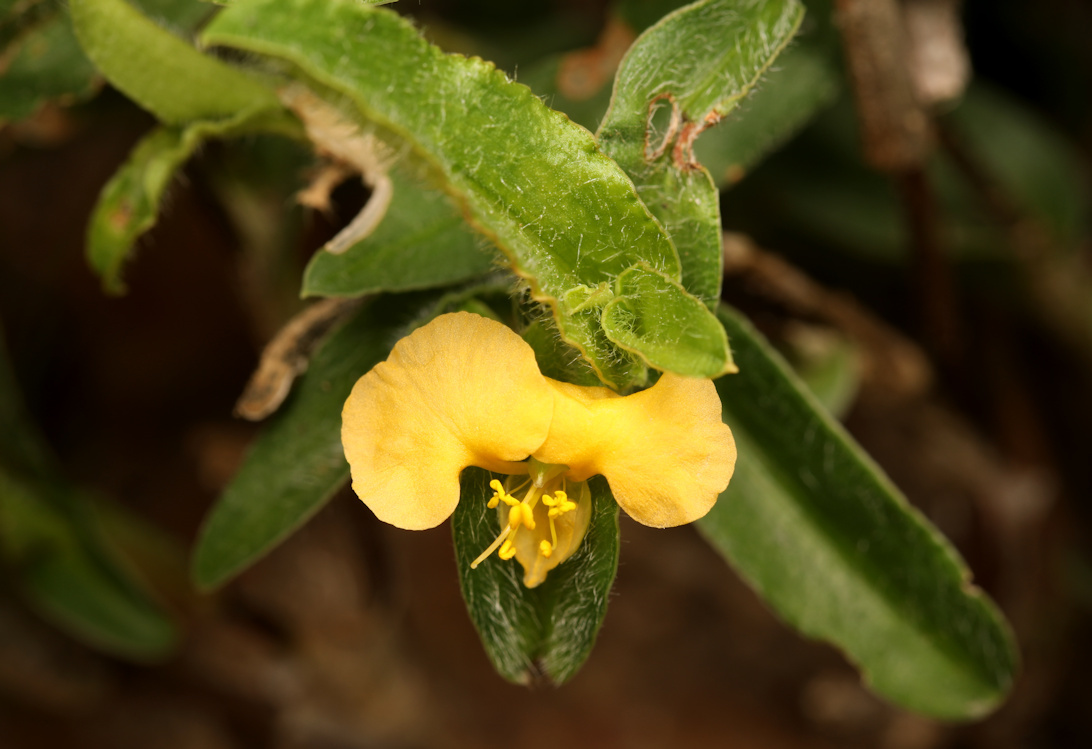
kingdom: Plantae
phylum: Tracheophyta
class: Liliopsida
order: Commelinales
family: Commelinaceae
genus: Commelina
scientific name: Commelina africana
